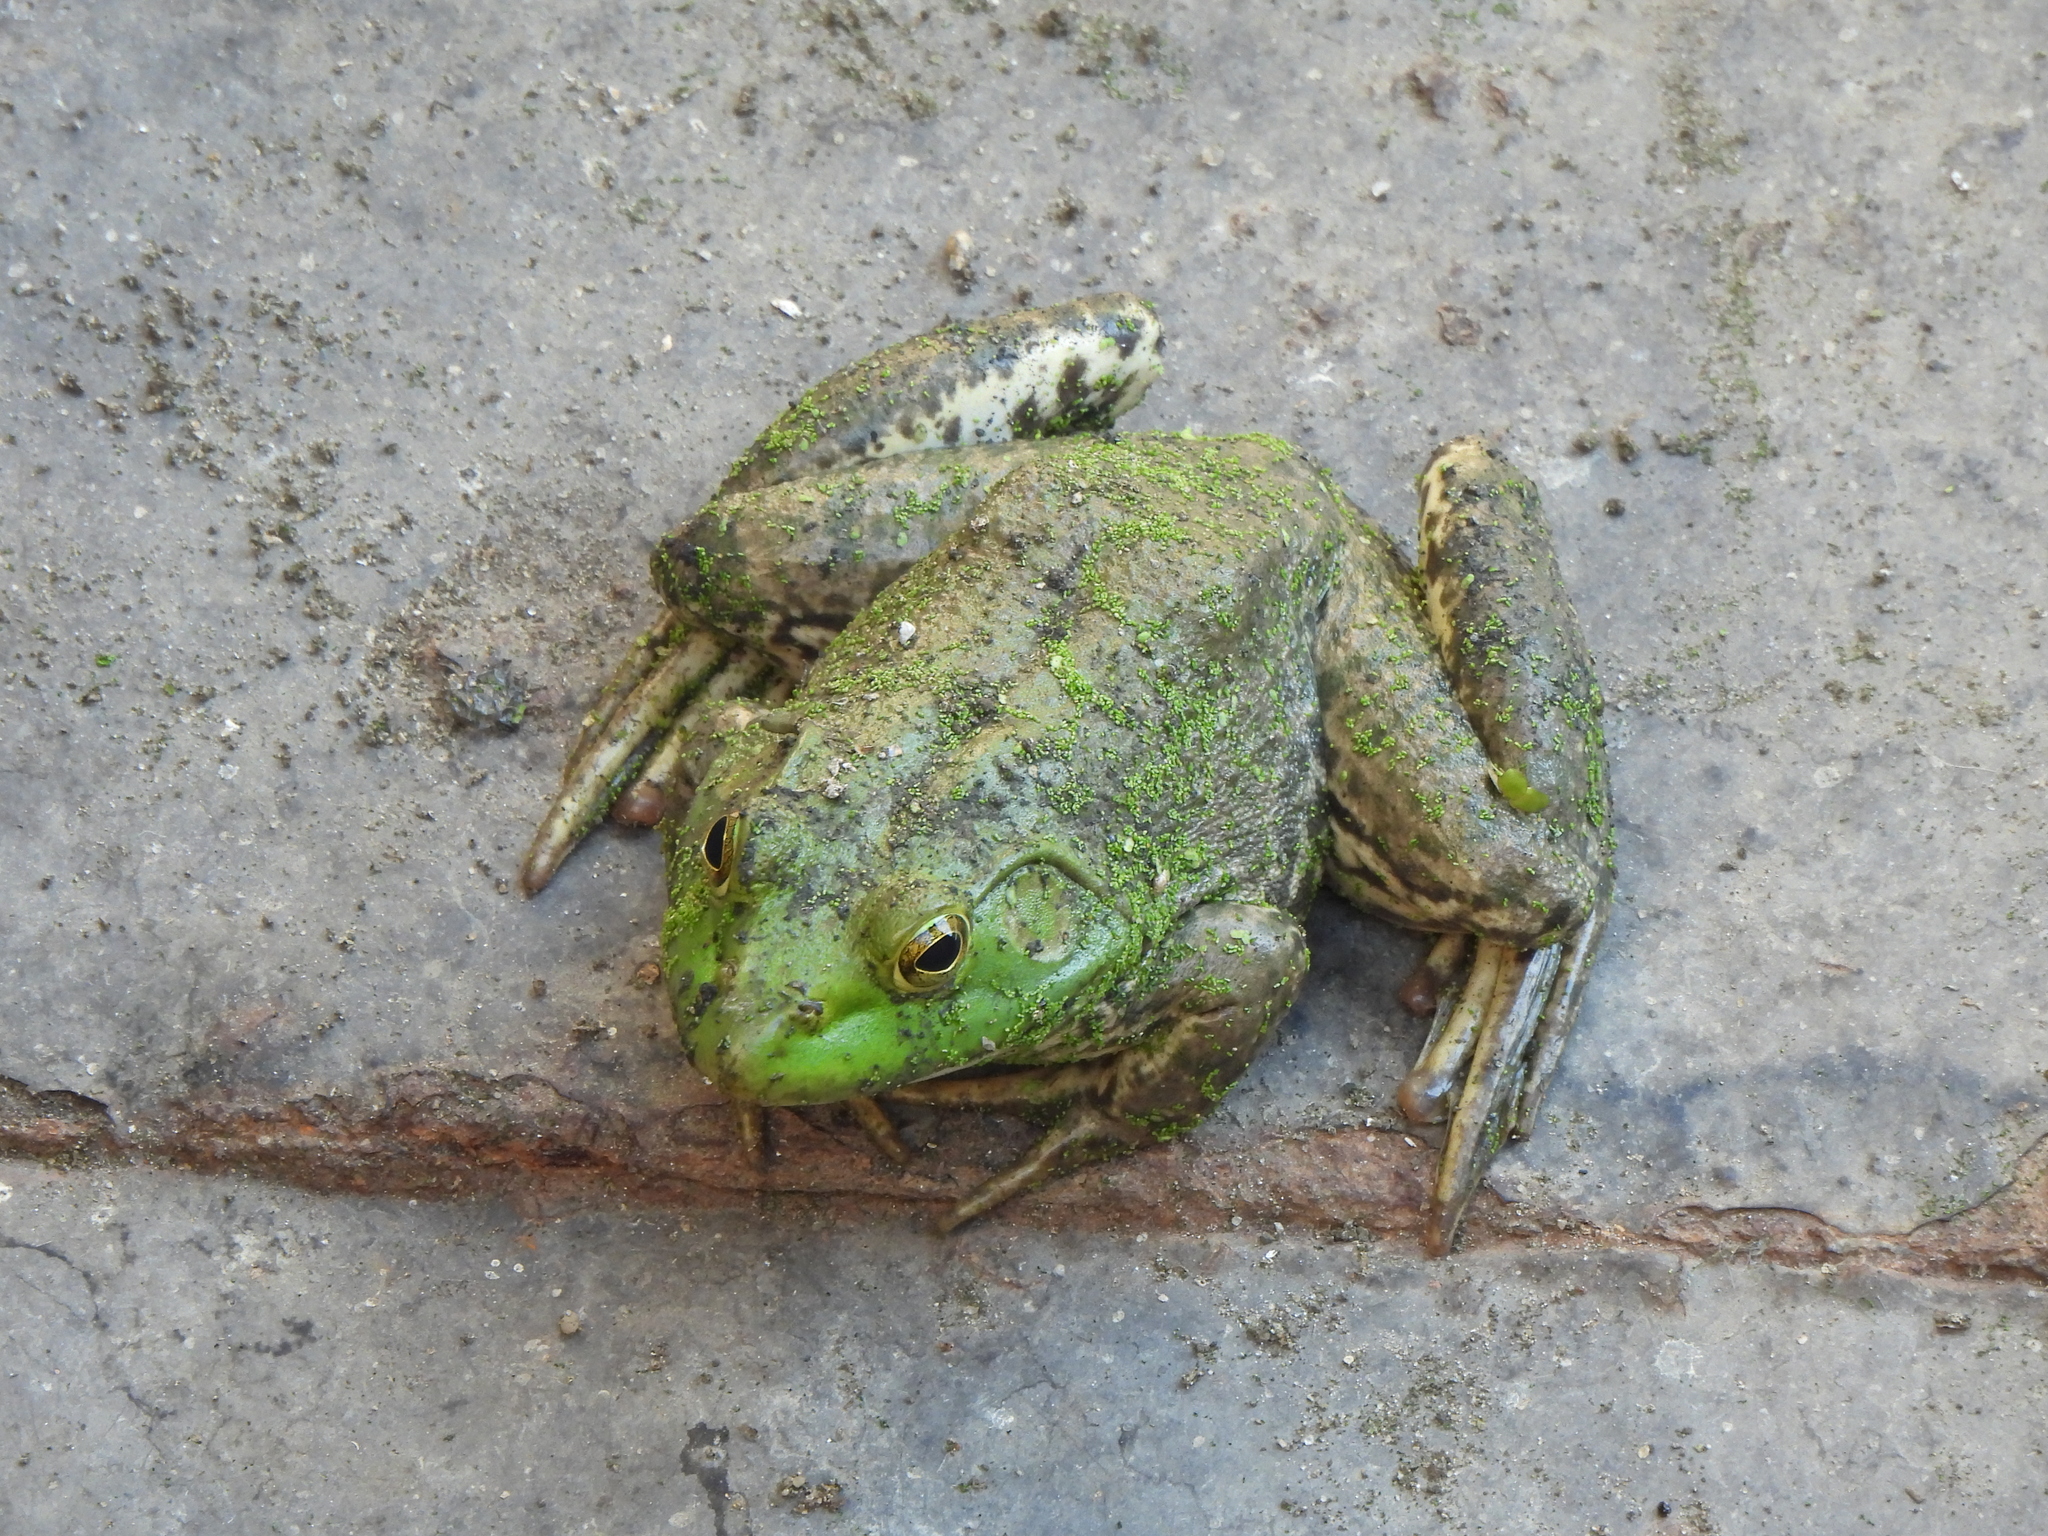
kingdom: Animalia
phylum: Chordata
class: Amphibia
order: Anura
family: Ranidae
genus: Lithobates
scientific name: Lithobates catesbeianus
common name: American bullfrog
